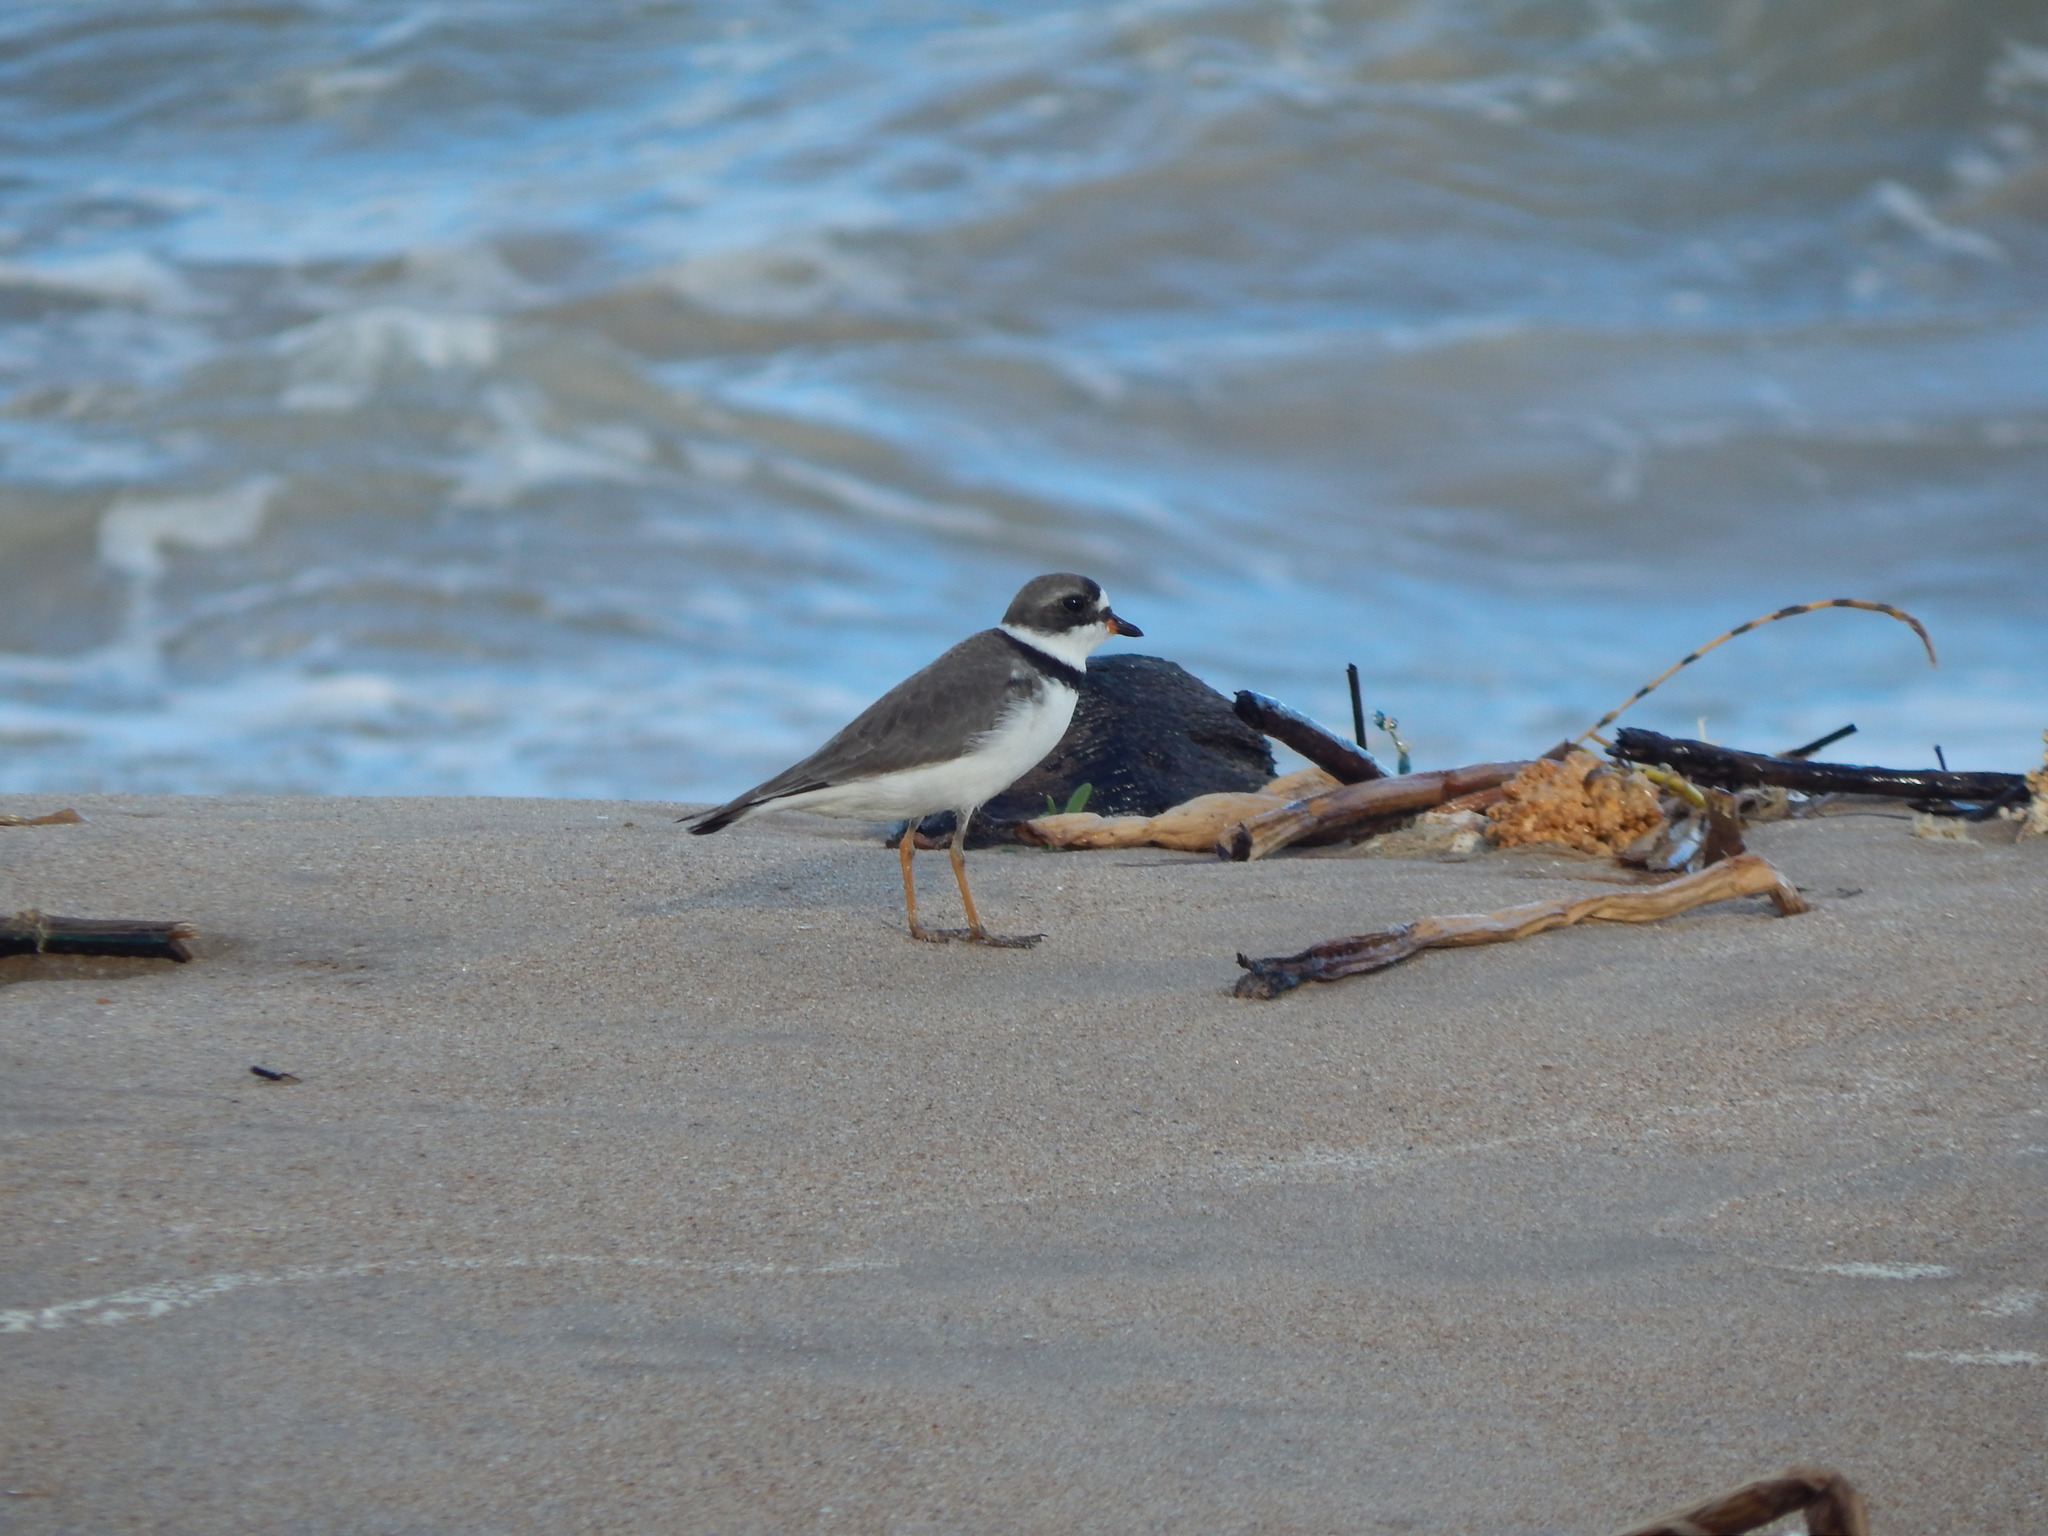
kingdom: Animalia
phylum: Chordata
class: Aves
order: Charadriiformes
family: Charadriidae
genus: Charadrius
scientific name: Charadrius semipalmatus
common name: Semipalmated plover
